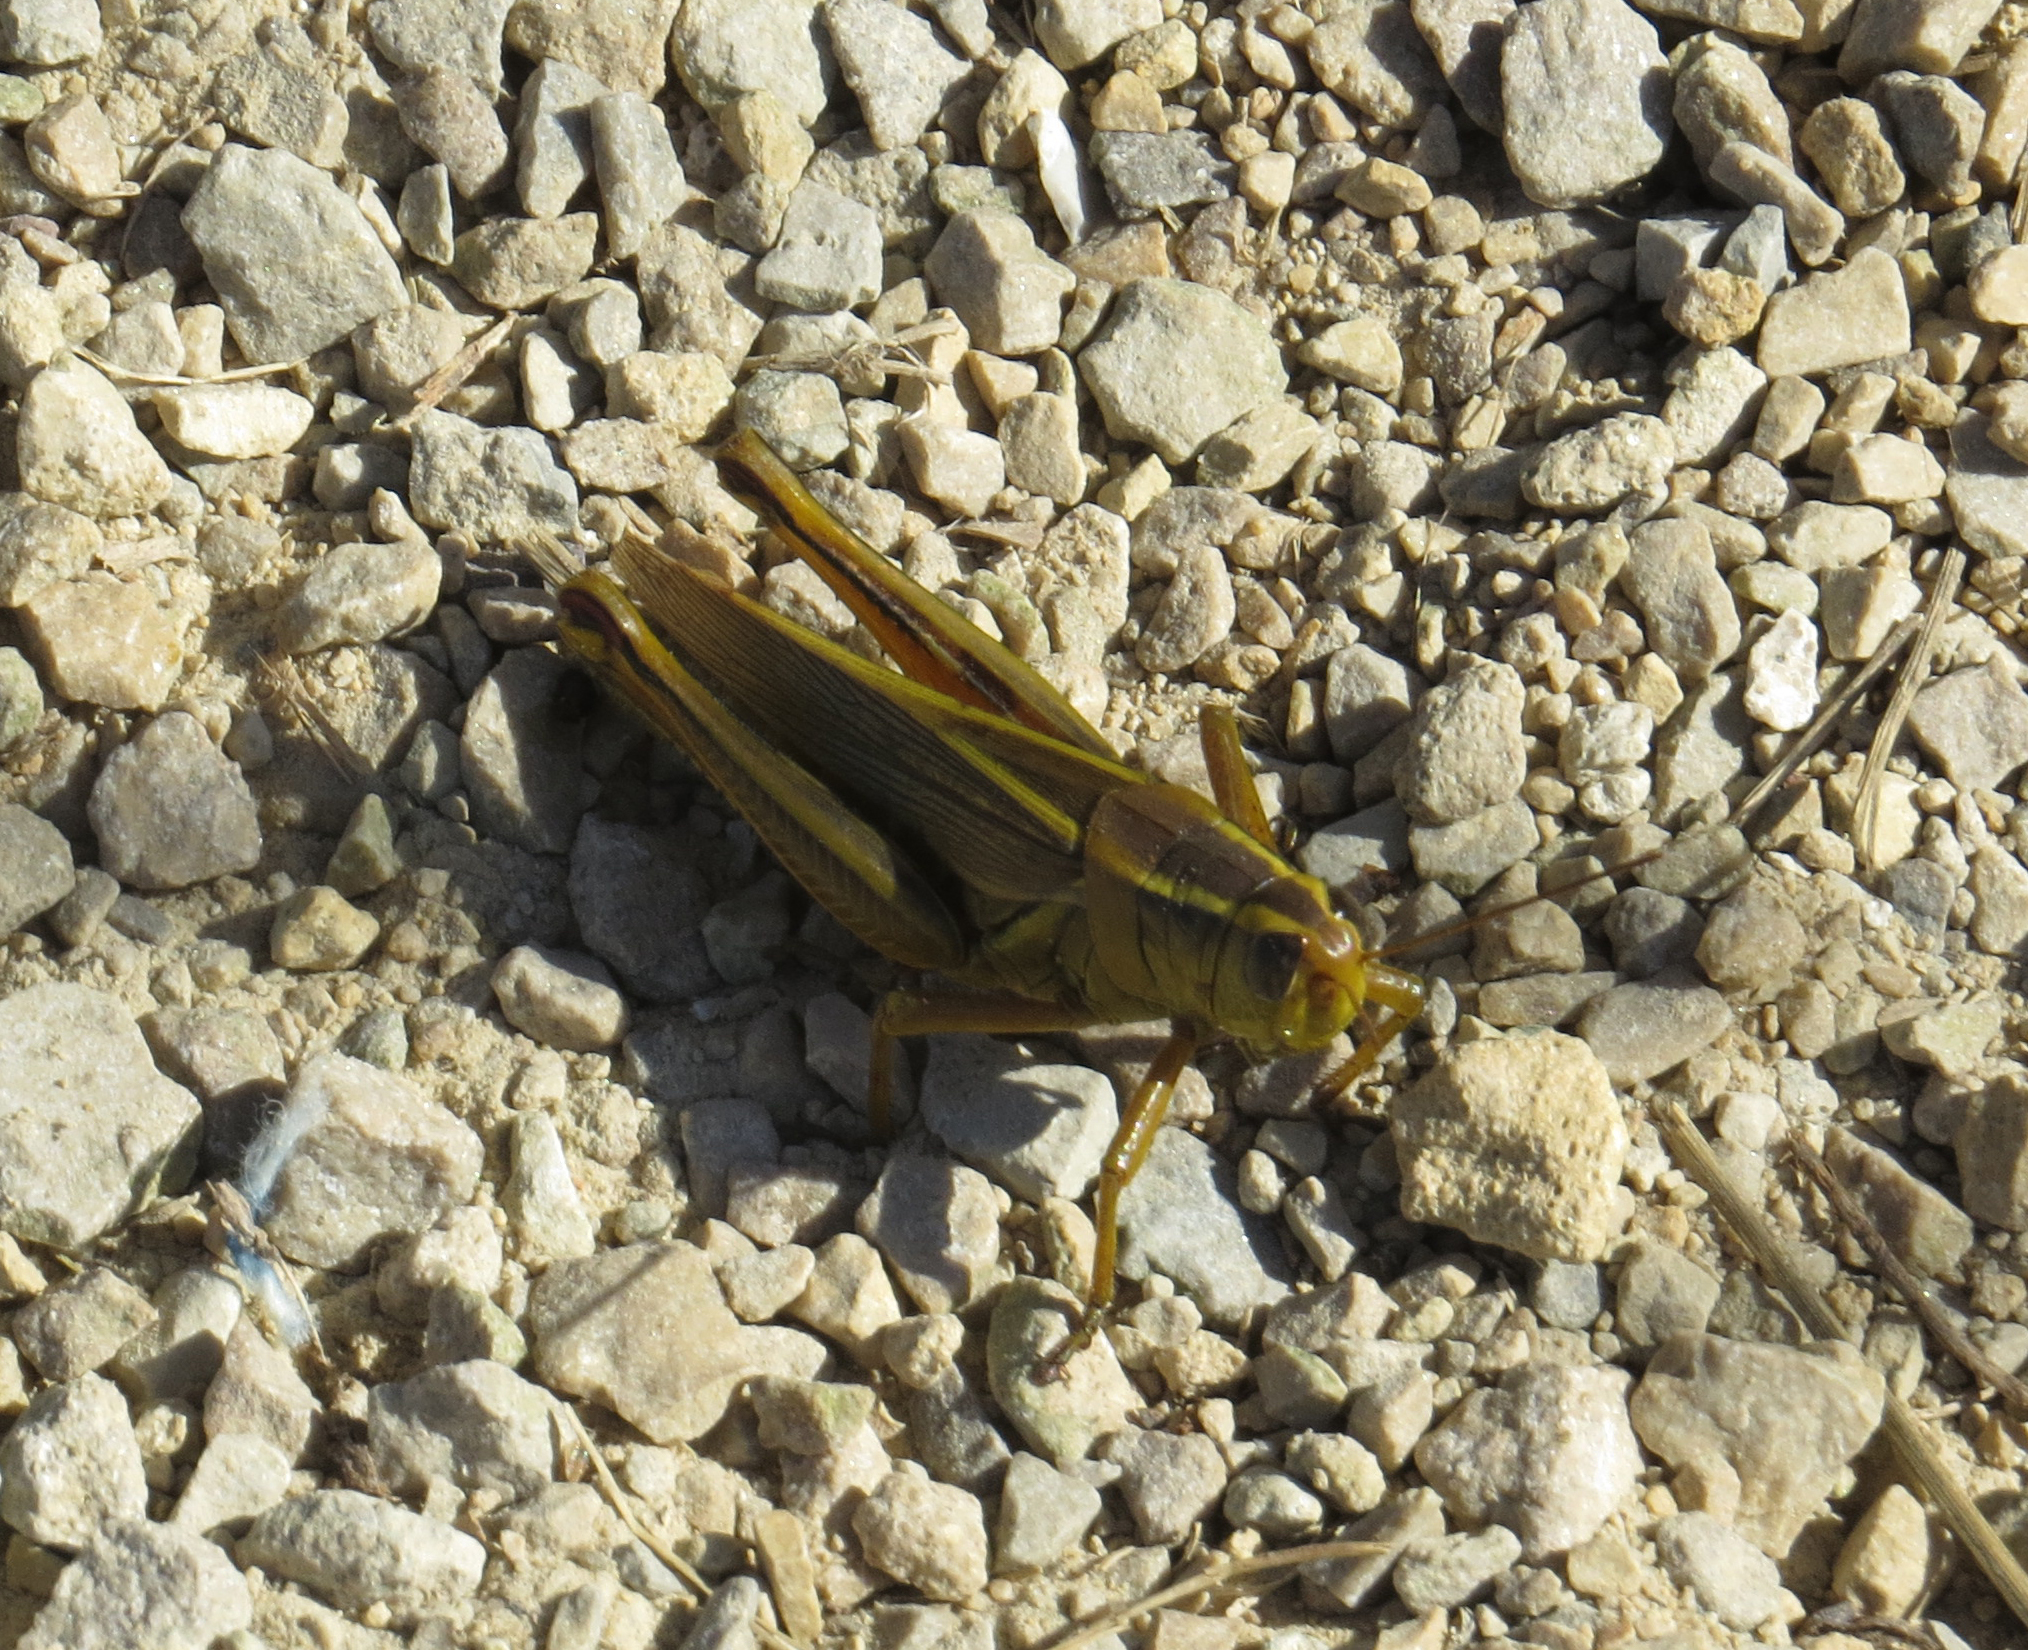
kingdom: Animalia
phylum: Arthropoda
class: Insecta
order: Orthoptera
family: Acrididae
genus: Melanoplus
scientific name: Melanoplus bivittatus
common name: Two-striped grasshopper
